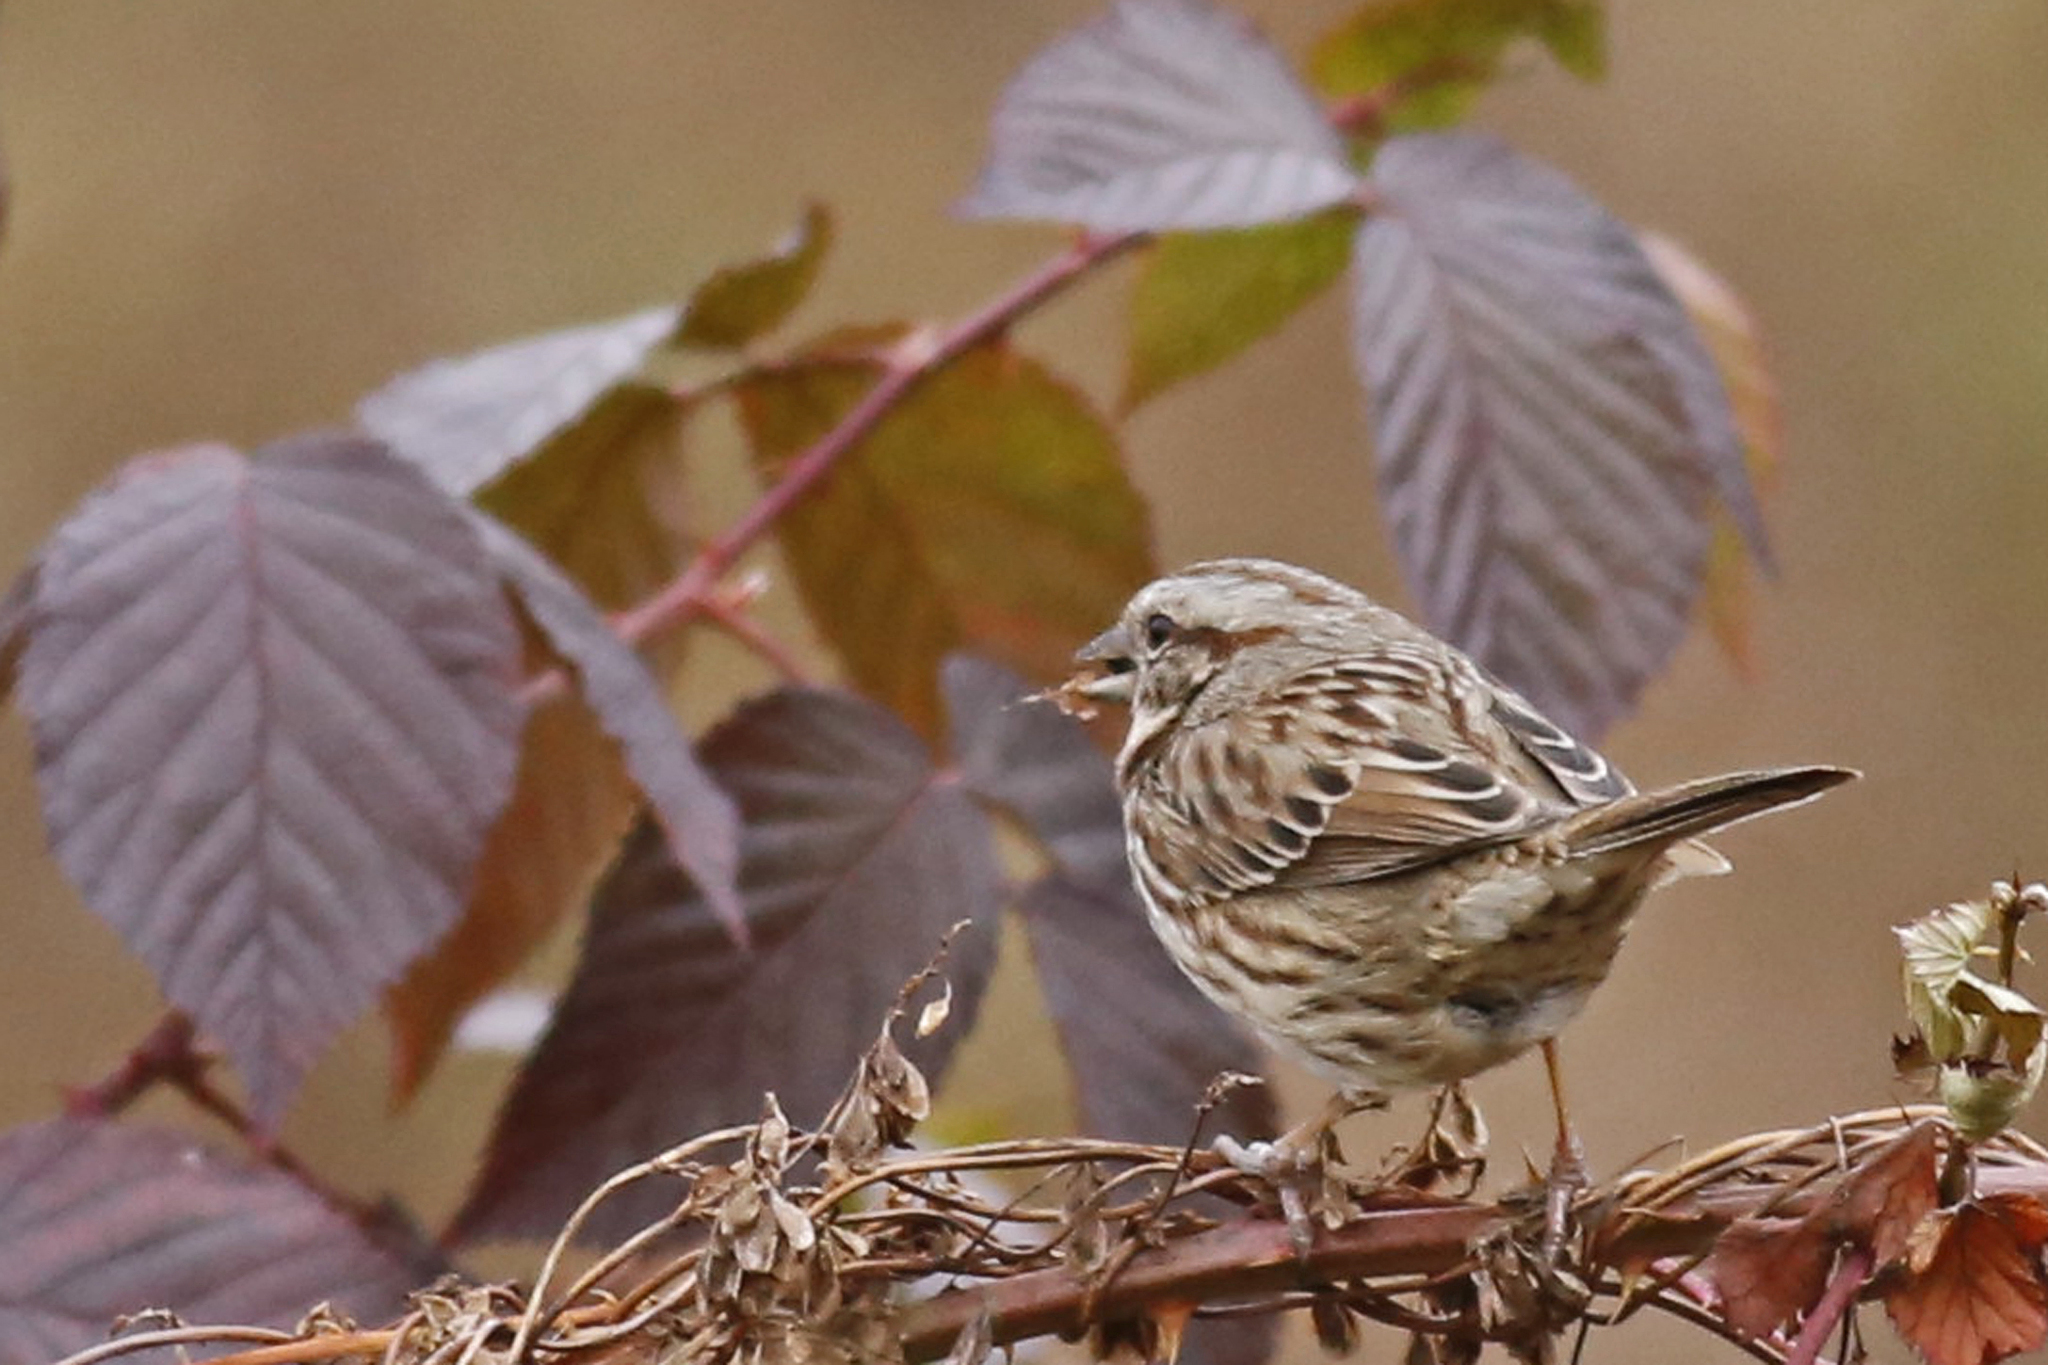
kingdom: Animalia
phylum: Chordata
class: Aves
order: Passeriformes
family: Passerellidae
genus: Melospiza
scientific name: Melospiza melodia
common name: Song sparrow
